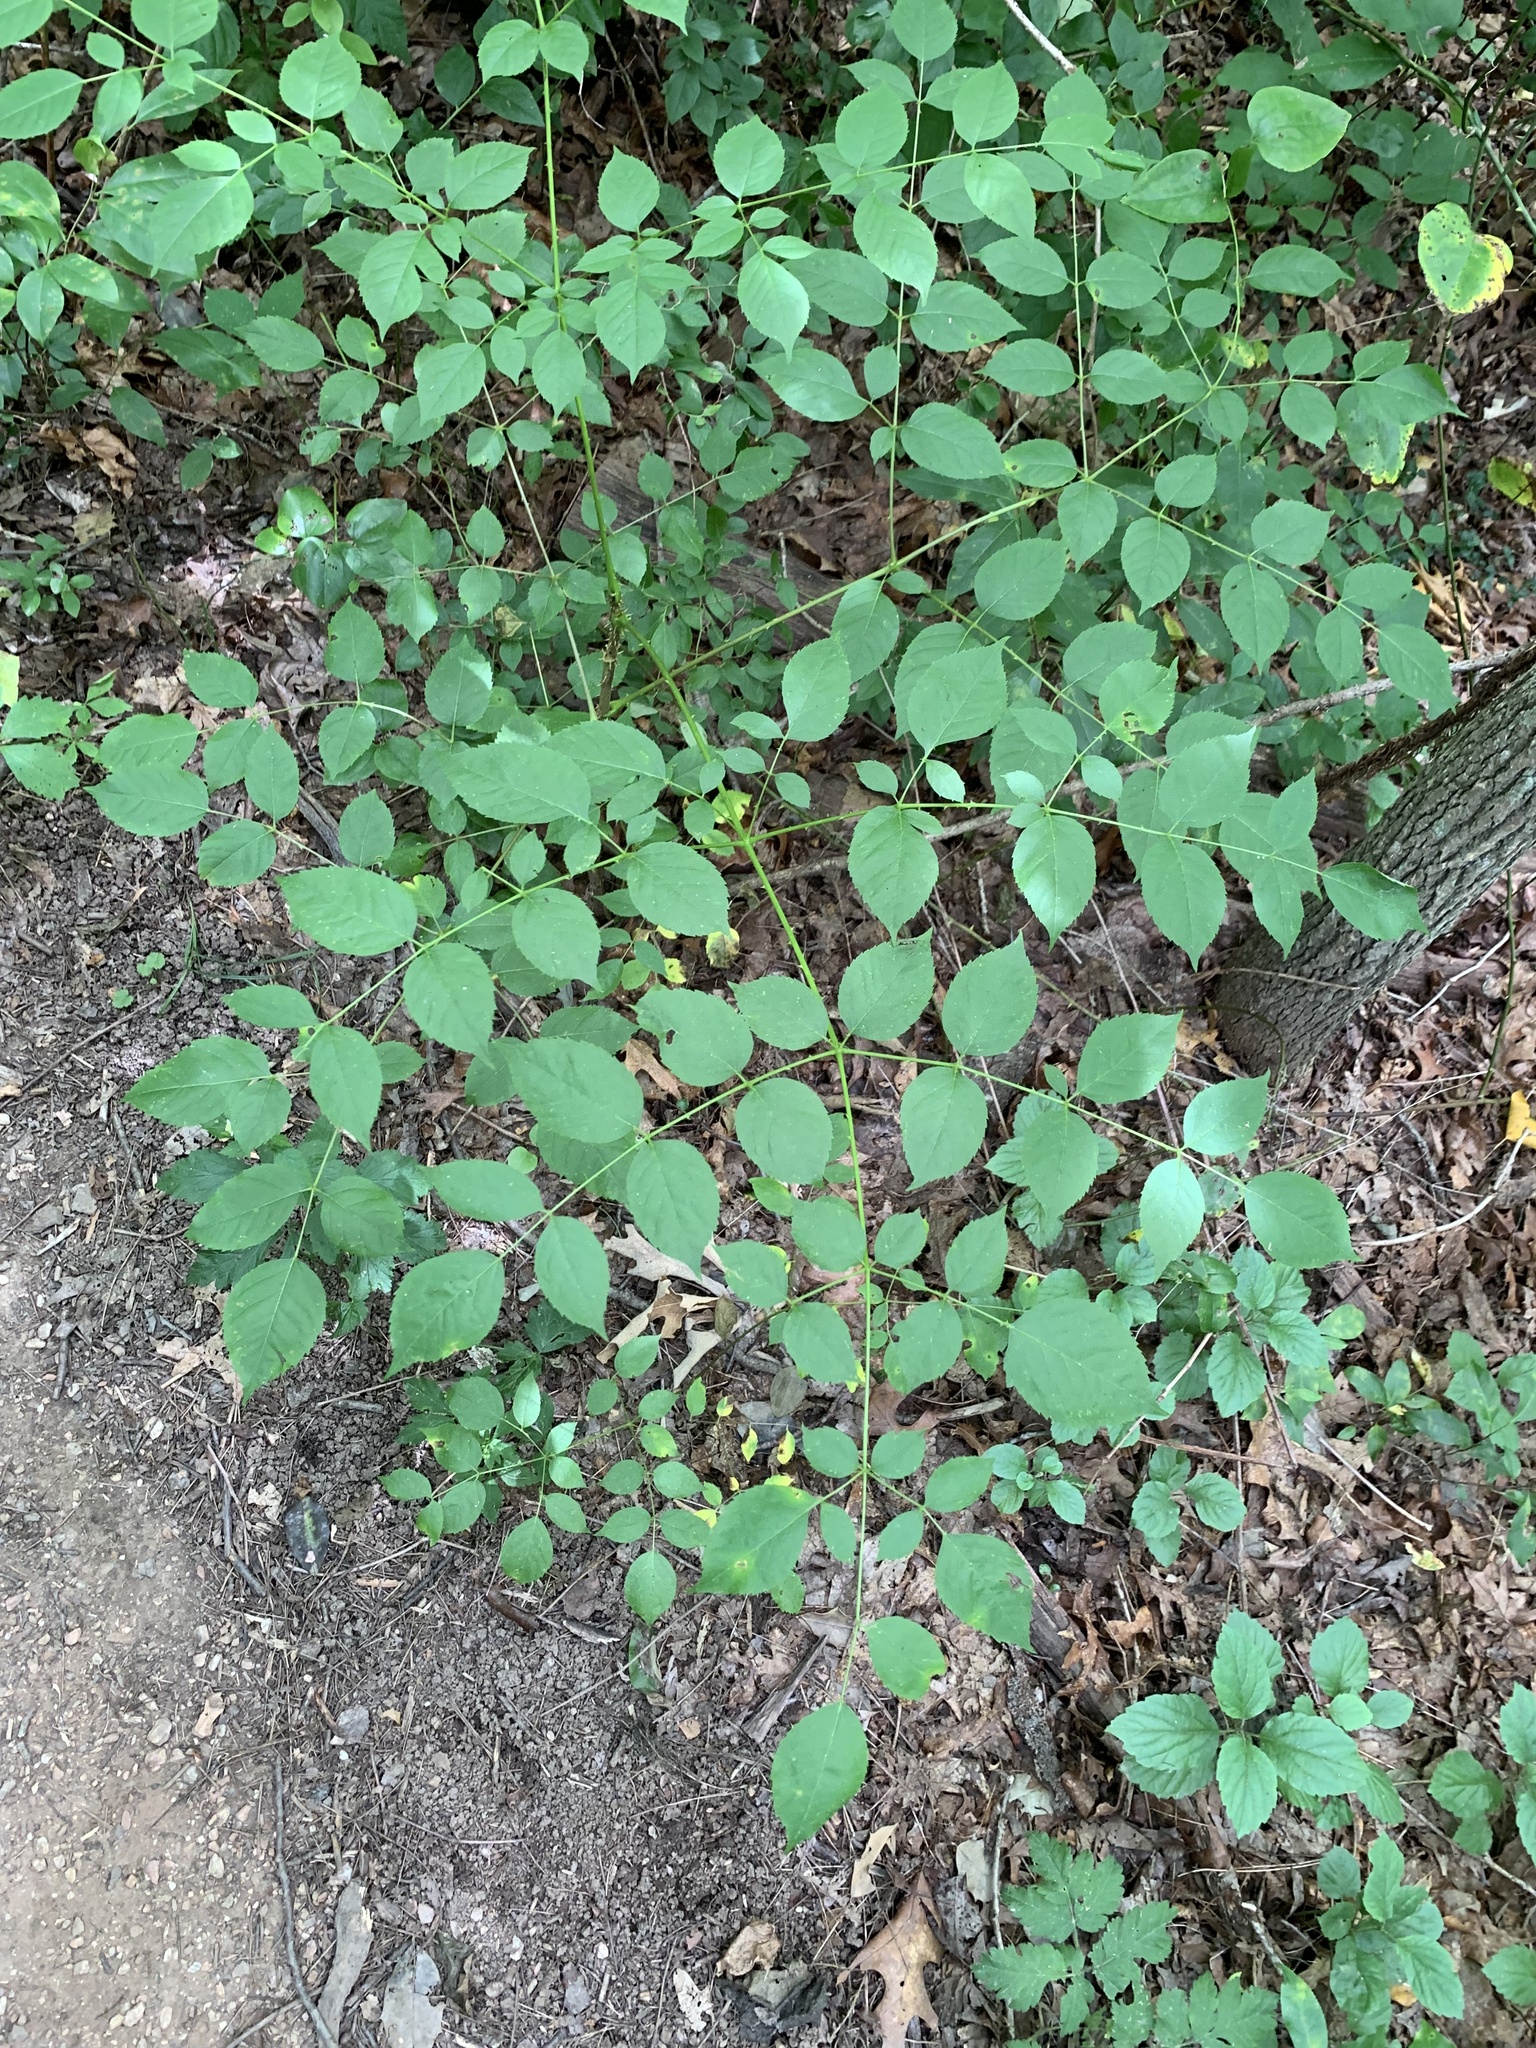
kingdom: Plantae
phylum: Tracheophyta
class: Magnoliopsida
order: Apiales
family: Araliaceae
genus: Aralia
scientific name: Aralia spinosa
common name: Hercules'-club
